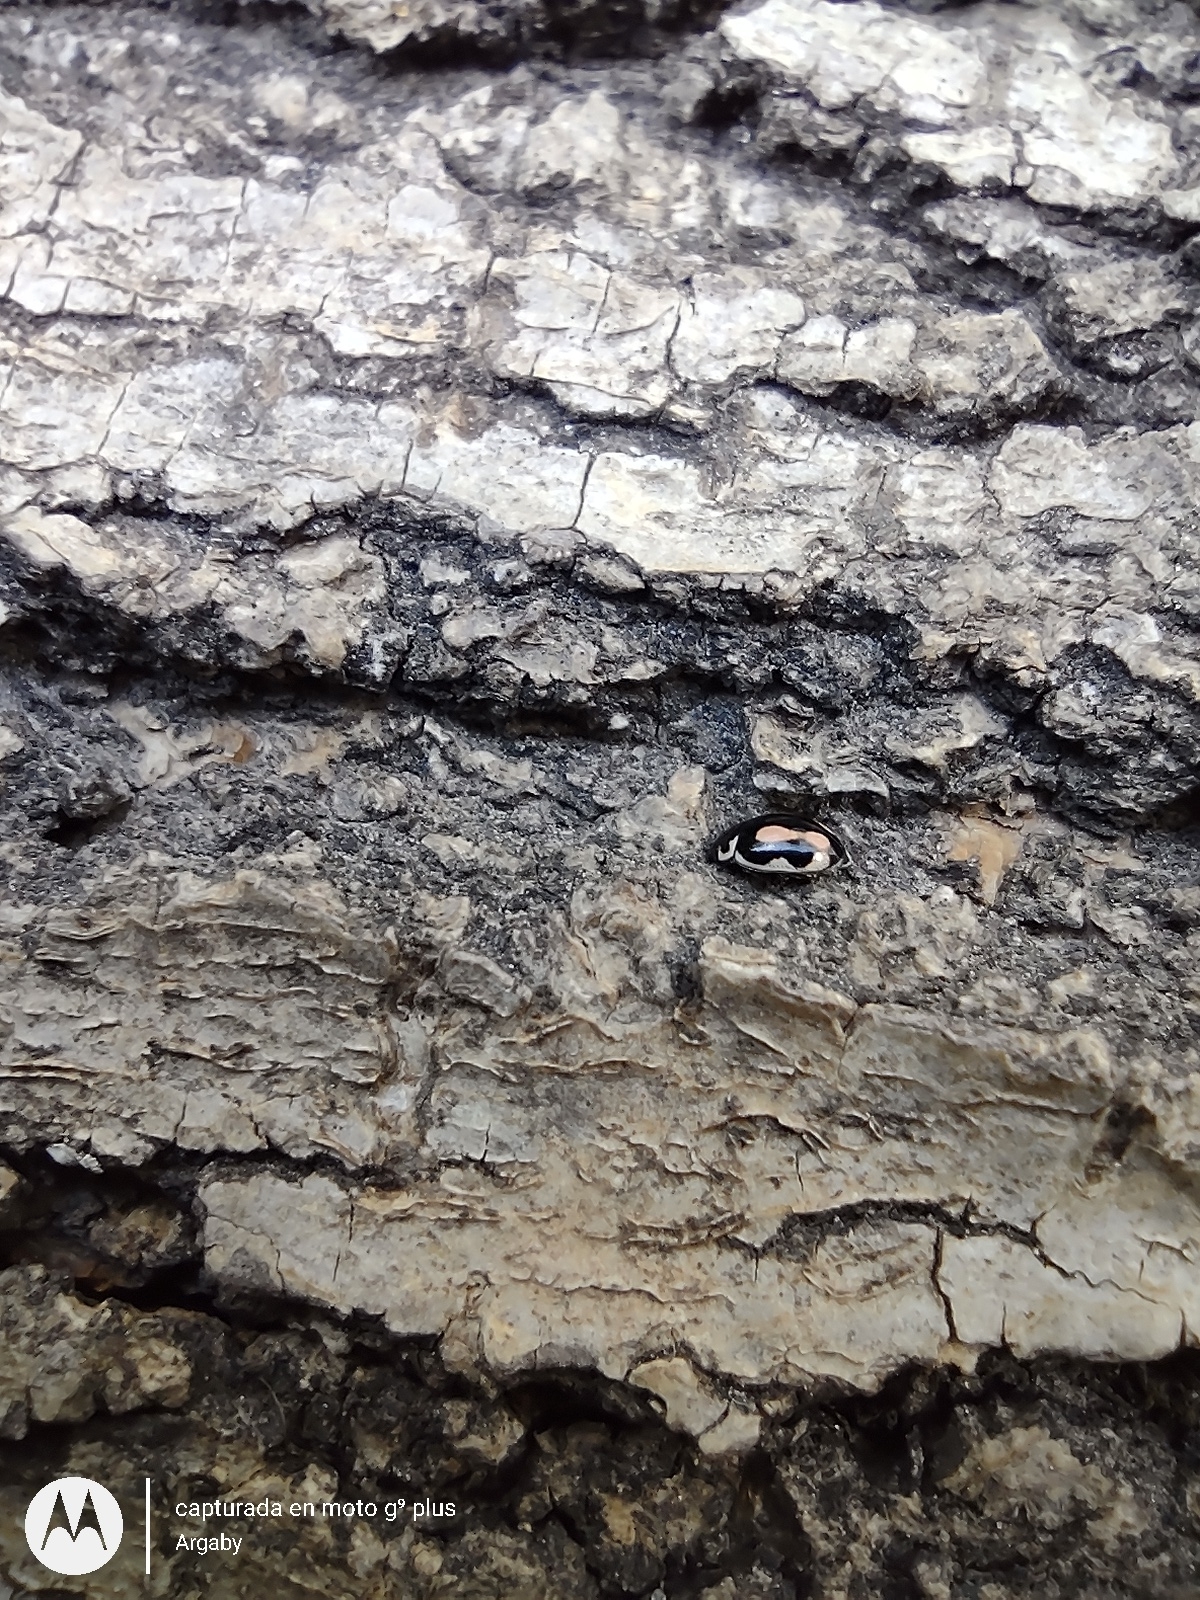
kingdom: Animalia
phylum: Arthropoda
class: Insecta
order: Coleoptera
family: Coccinellidae
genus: Hyperaspis
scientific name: Hyperaspis festiva
